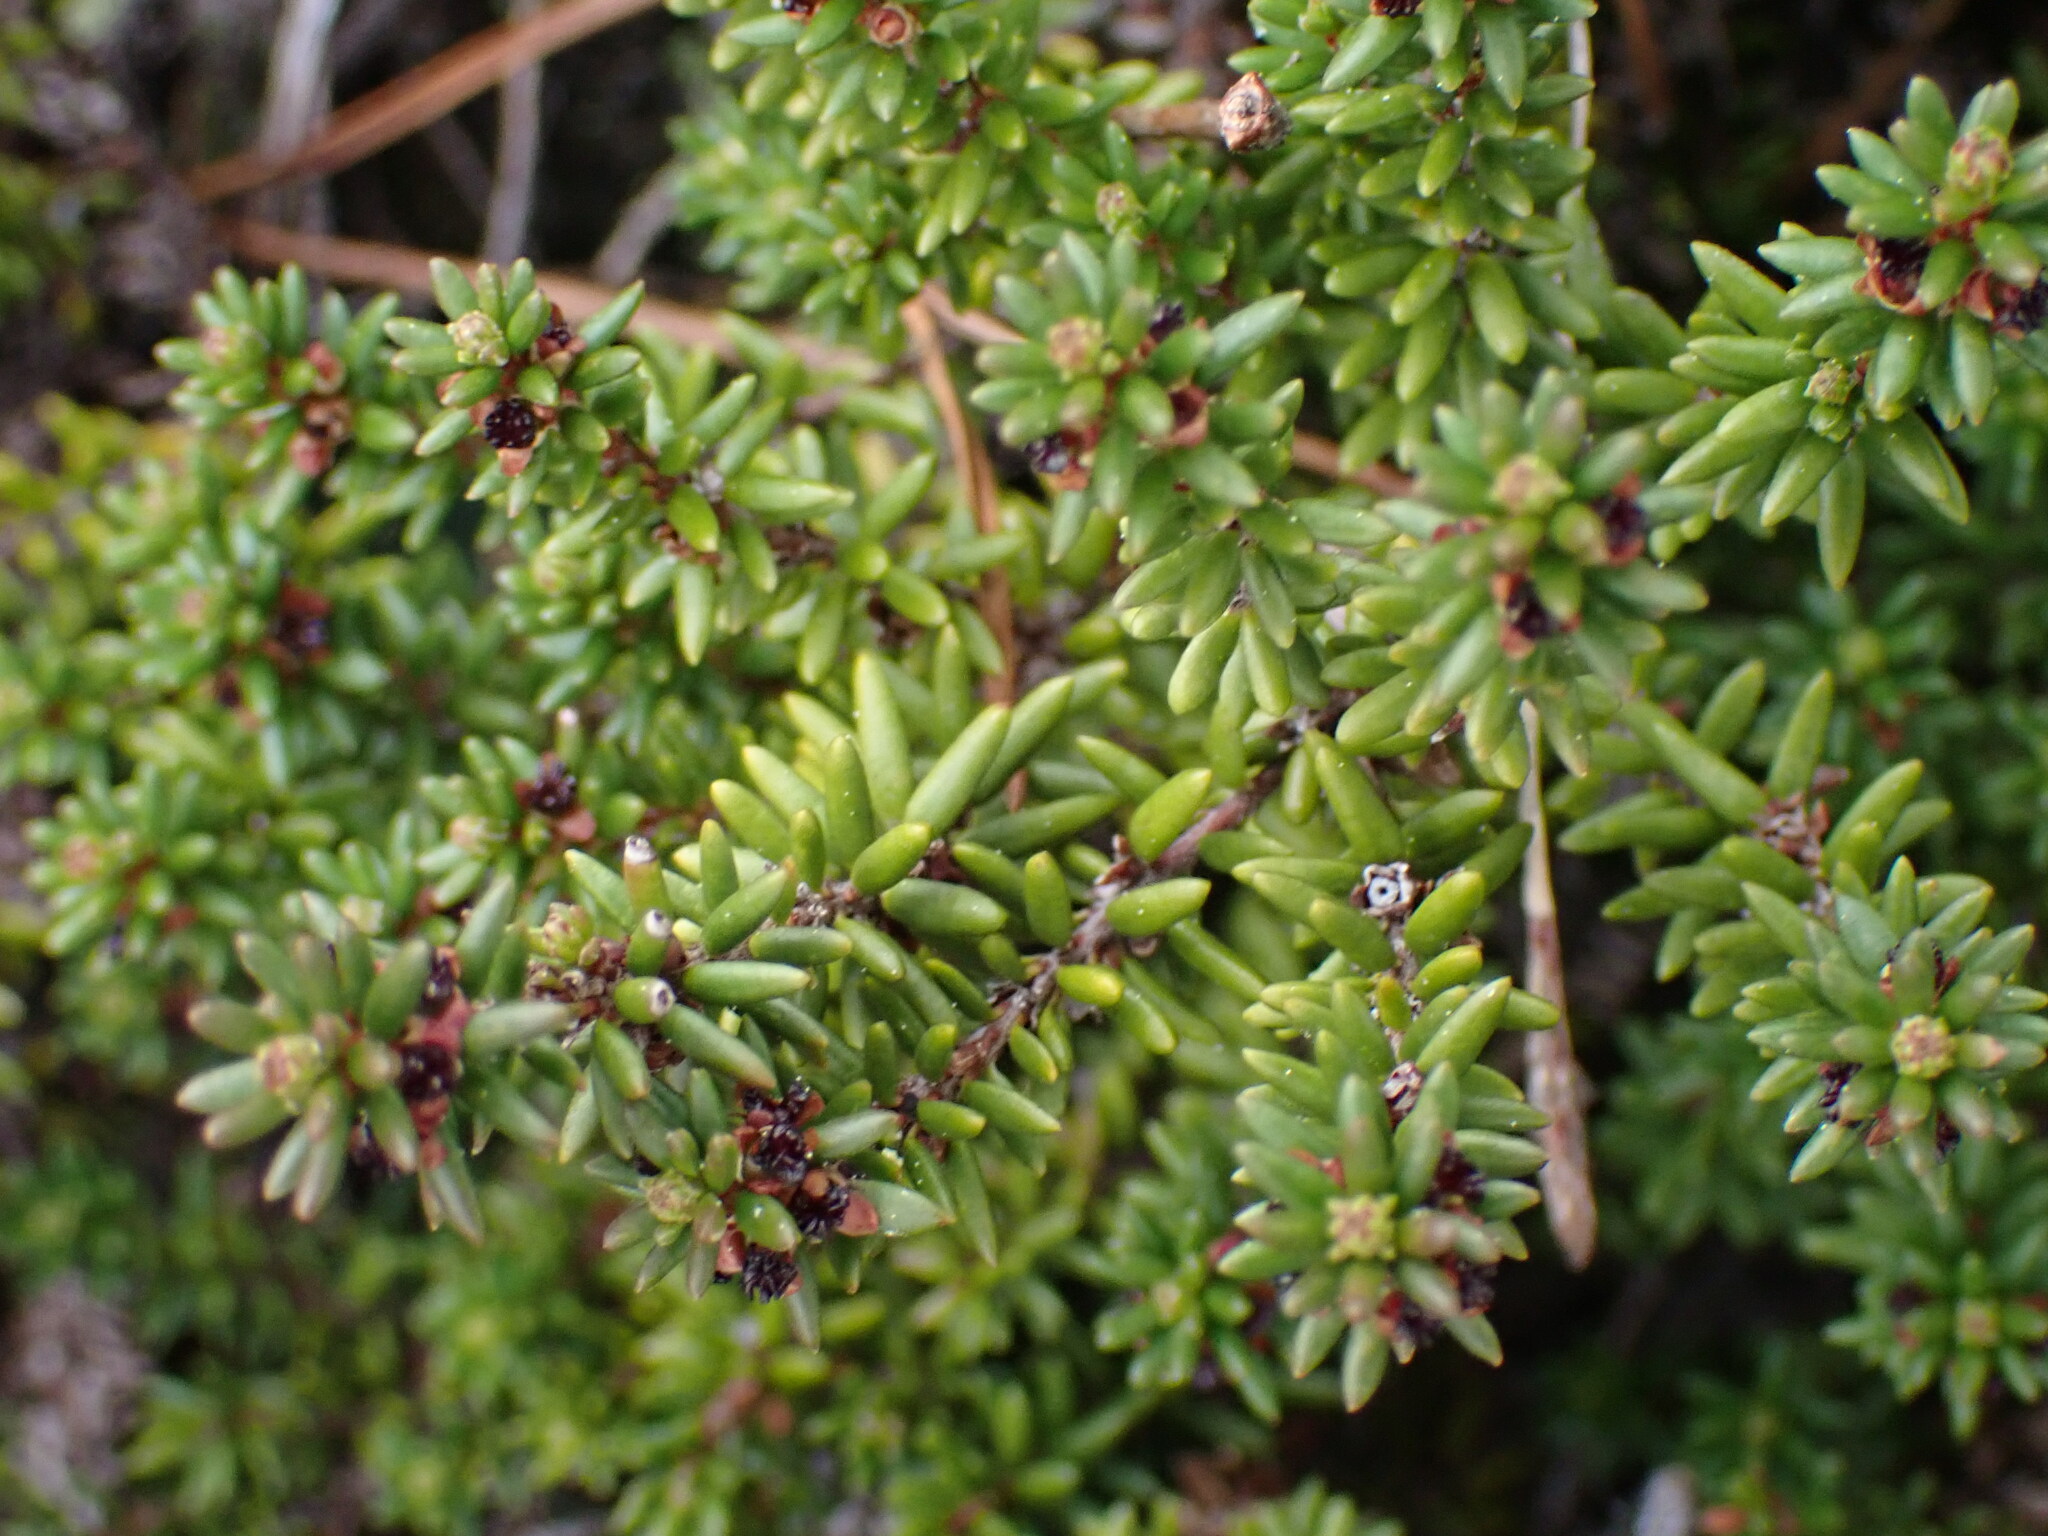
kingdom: Plantae
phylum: Tracheophyta
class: Magnoliopsida
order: Ericales
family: Ericaceae
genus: Empetrum
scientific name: Empetrum nigrum
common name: Black crowberry
